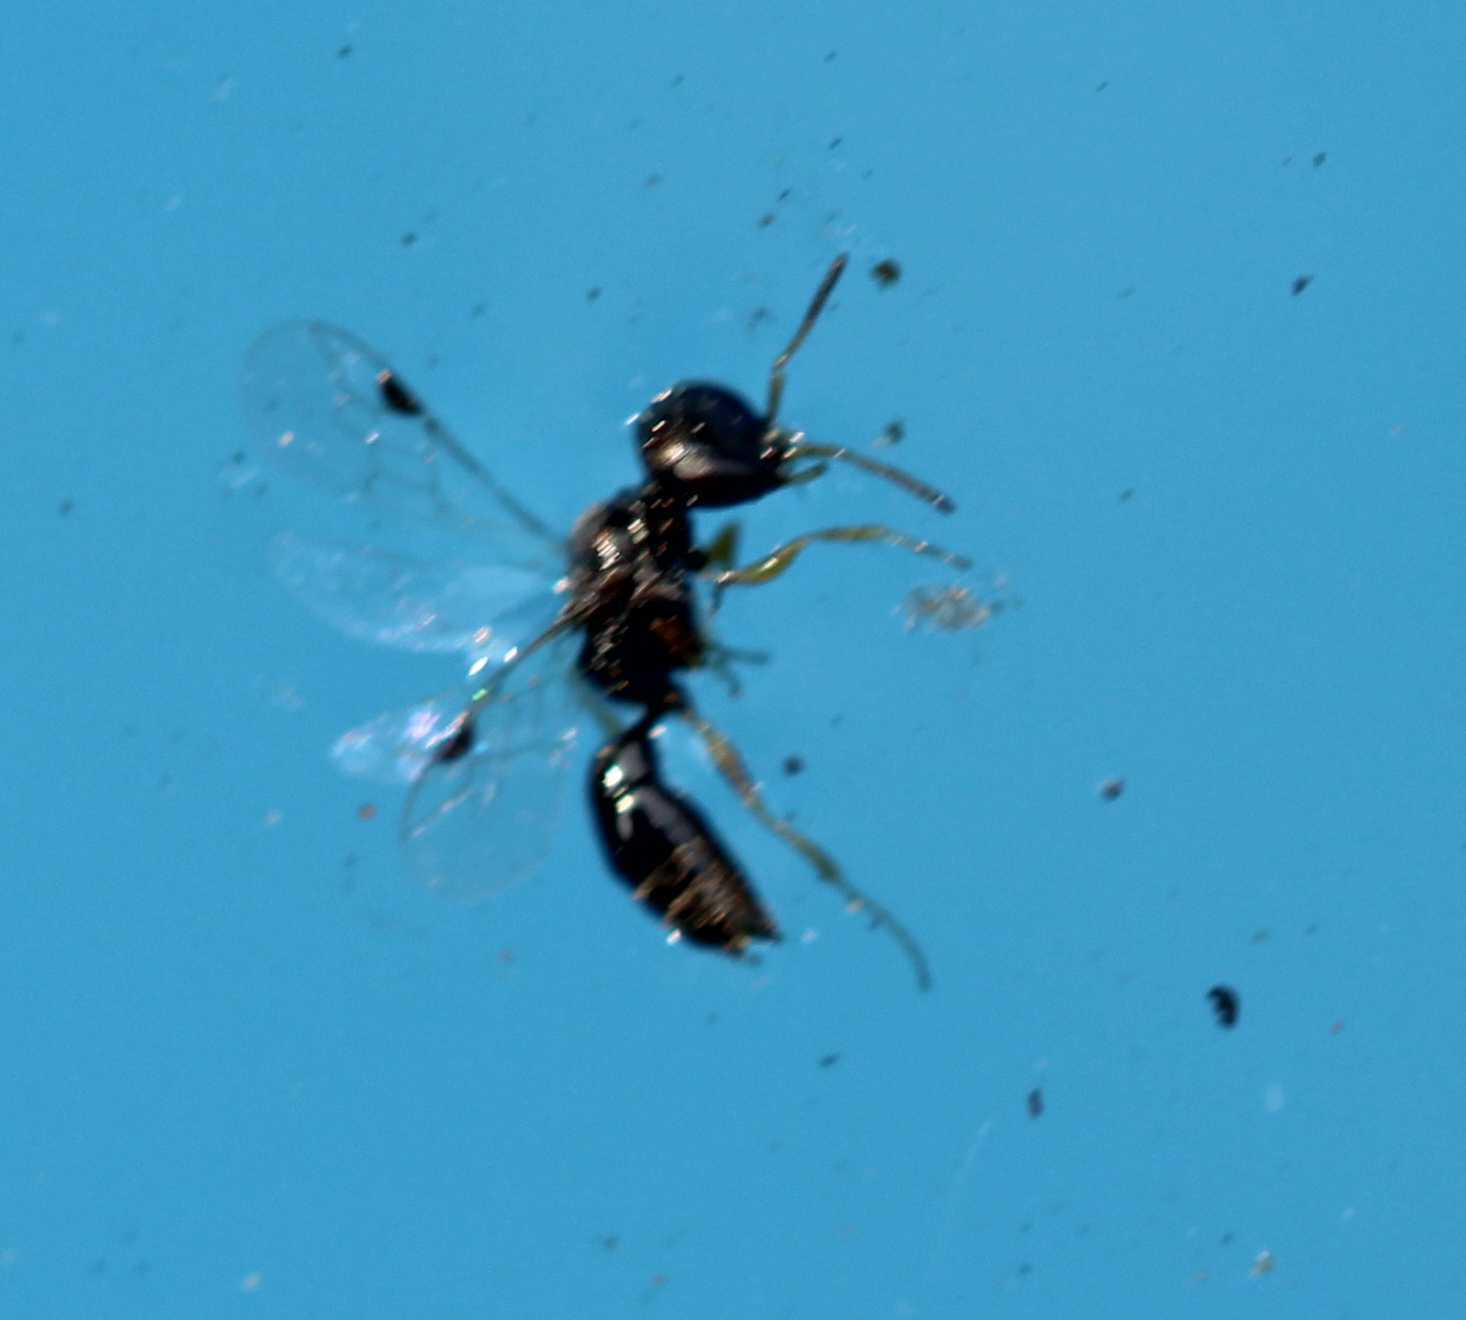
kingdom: Animalia
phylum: Arthropoda
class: Insecta
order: Hymenoptera
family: Crabronidae
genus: Spilomena
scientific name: Spilomena
